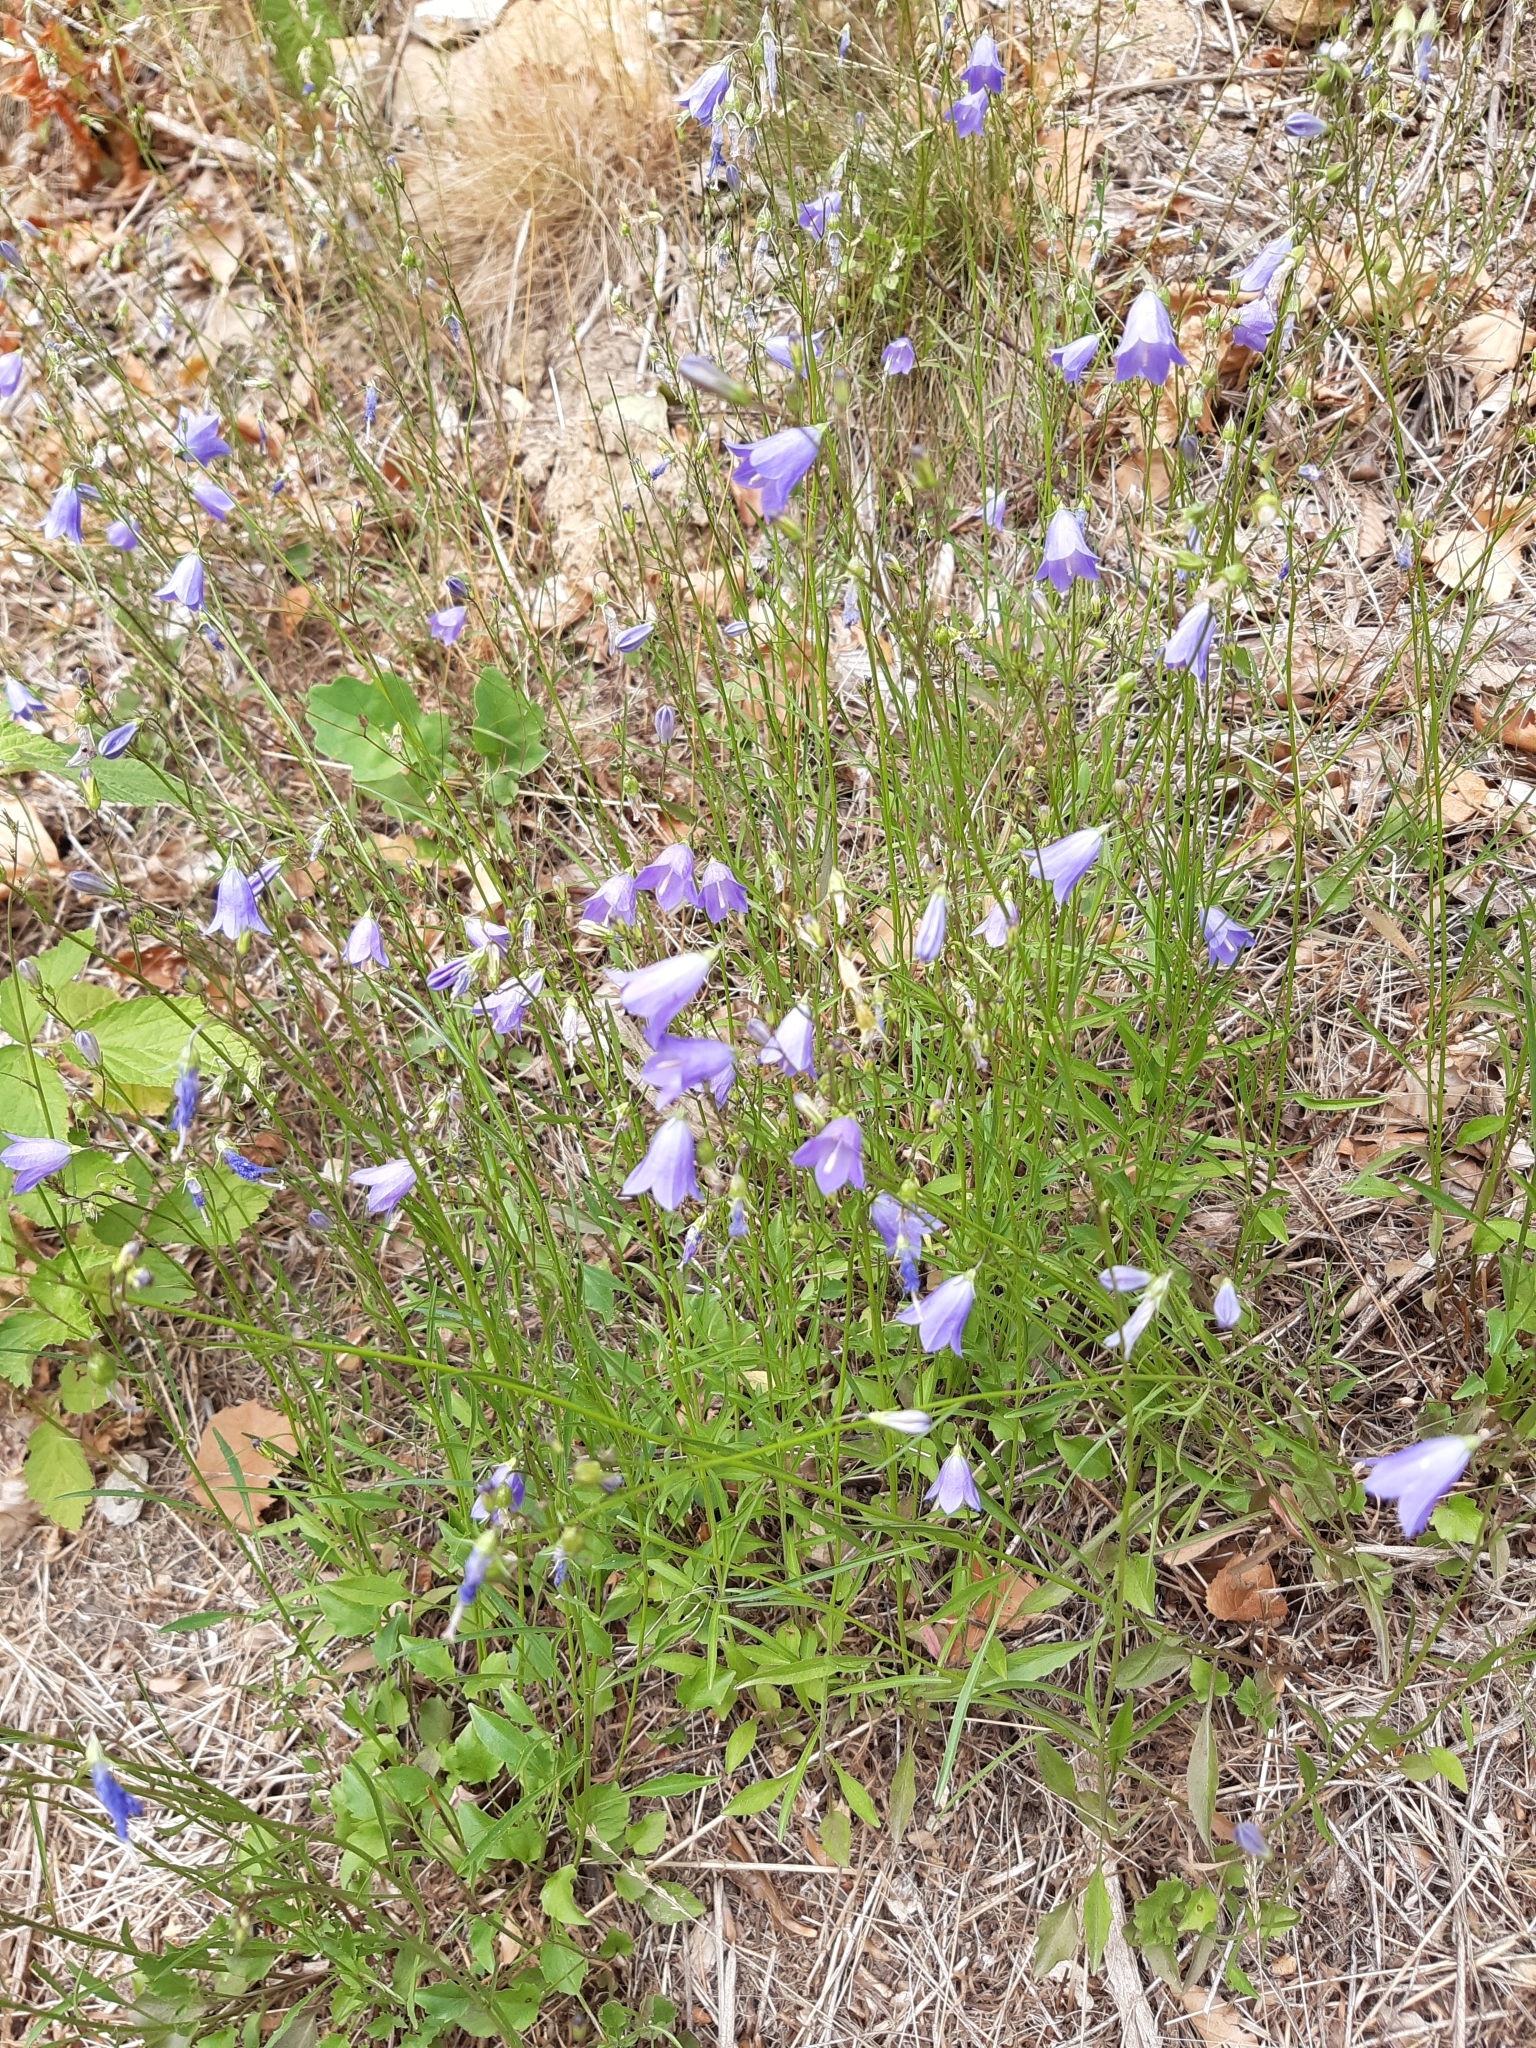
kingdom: Plantae
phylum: Tracheophyta
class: Magnoliopsida
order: Asterales
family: Campanulaceae
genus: Campanula
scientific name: Campanula rotundifolia
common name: Harebell
